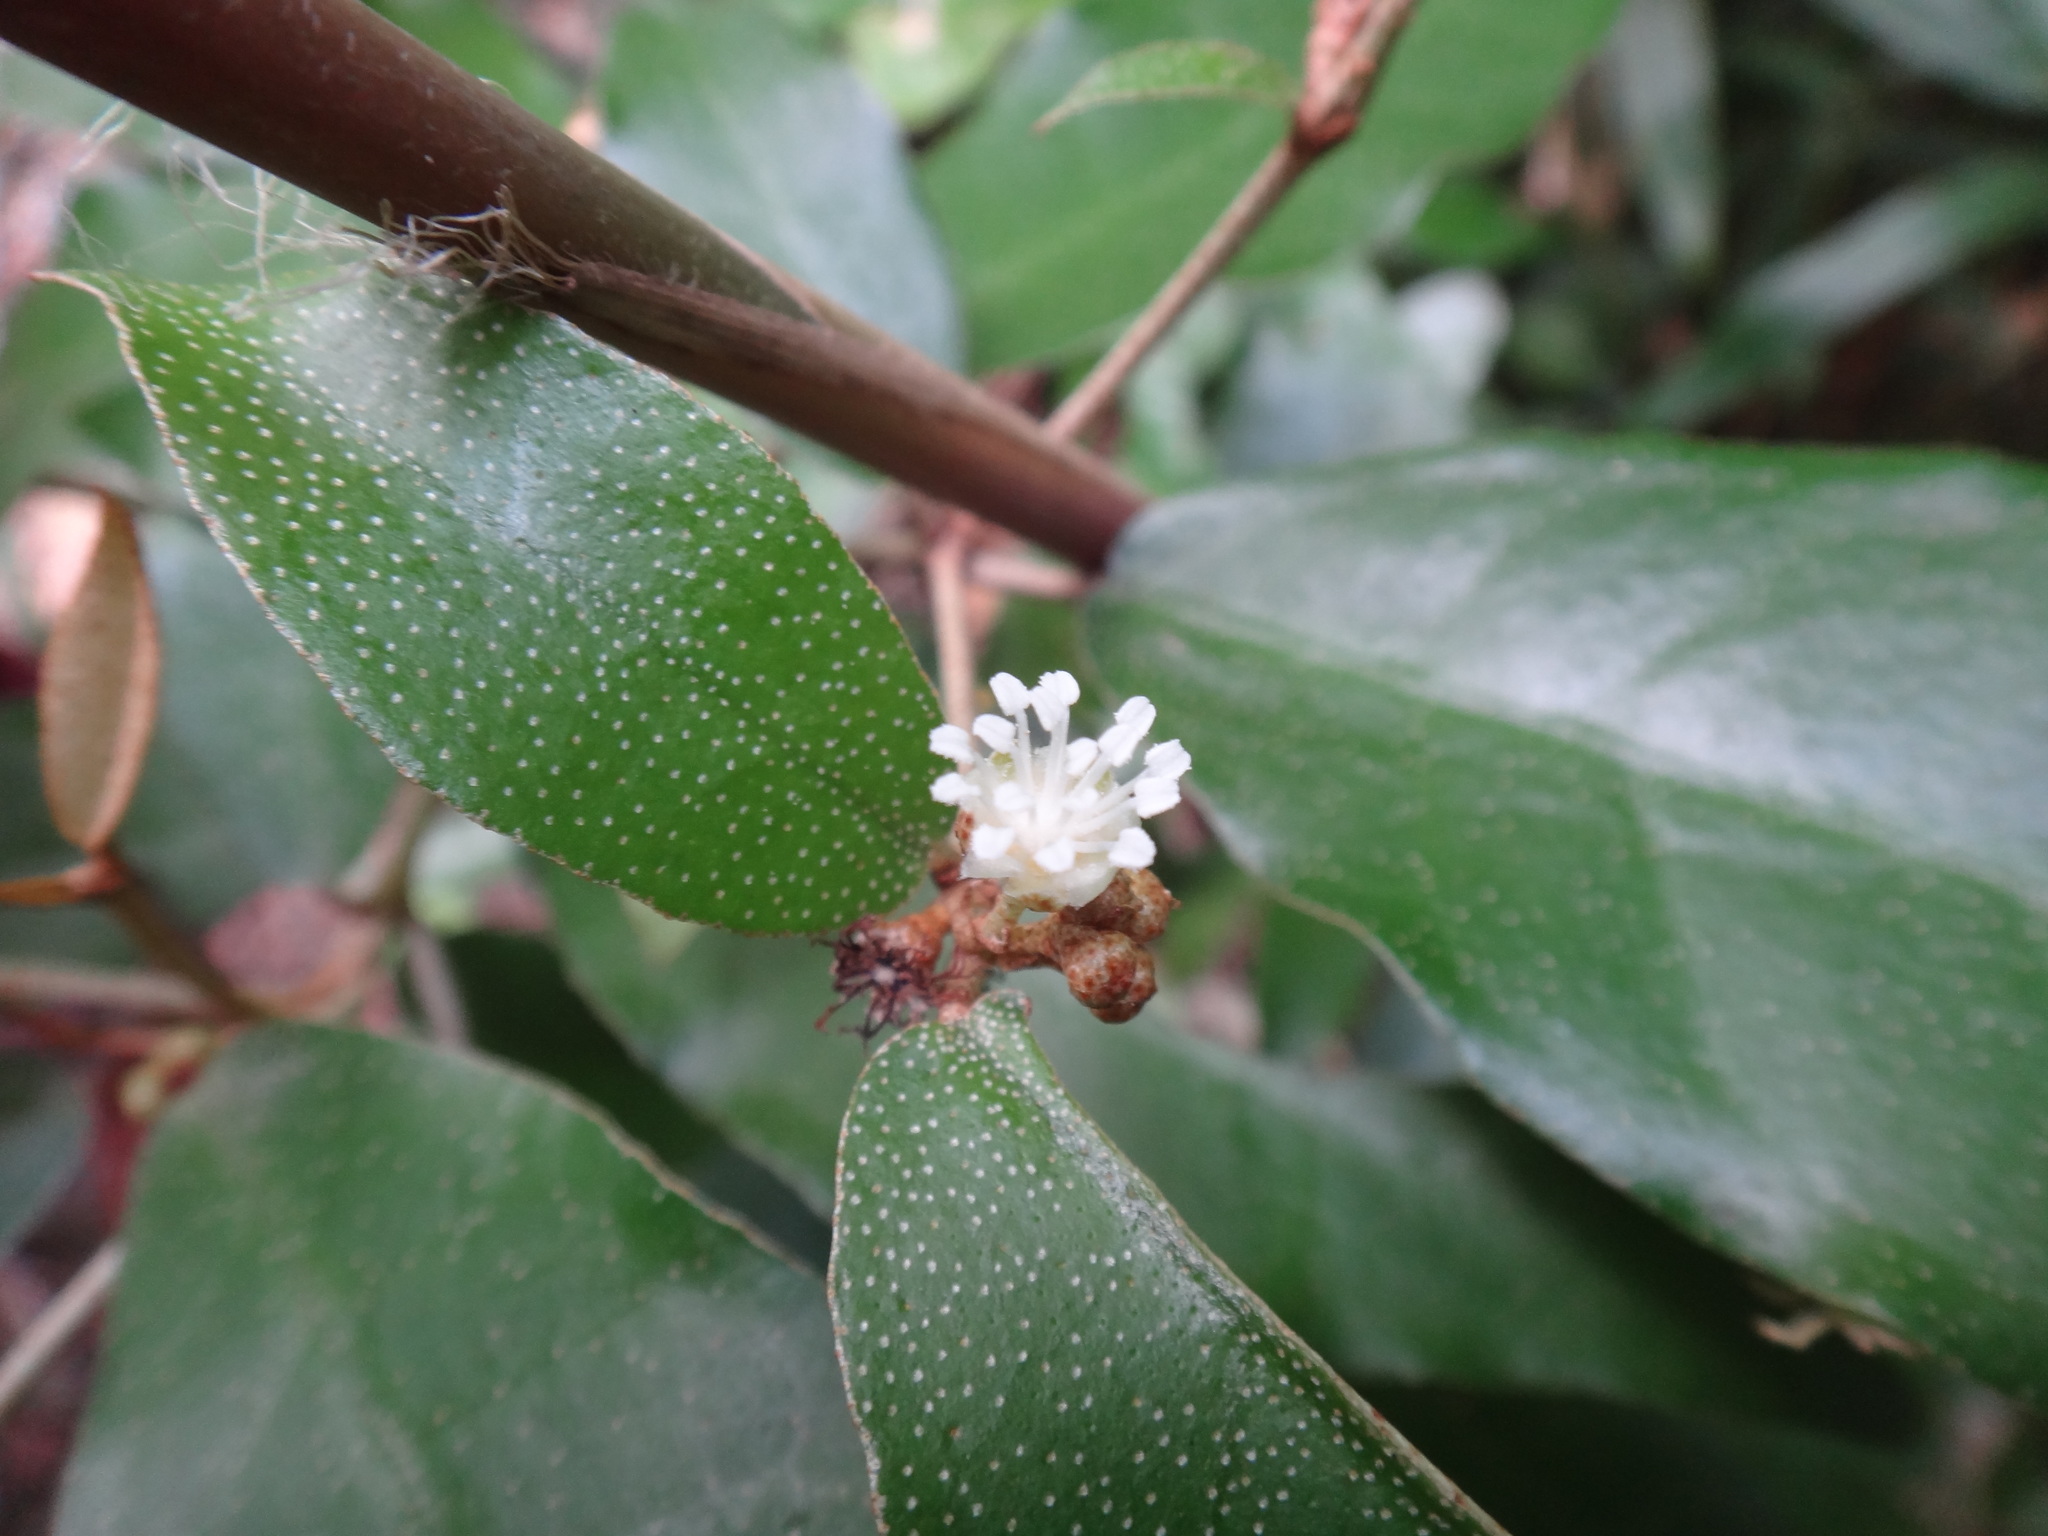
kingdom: Plantae
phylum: Tracheophyta
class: Magnoliopsida
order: Malpighiales
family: Euphorbiaceae
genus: Croton
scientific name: Croton cascarilloides
